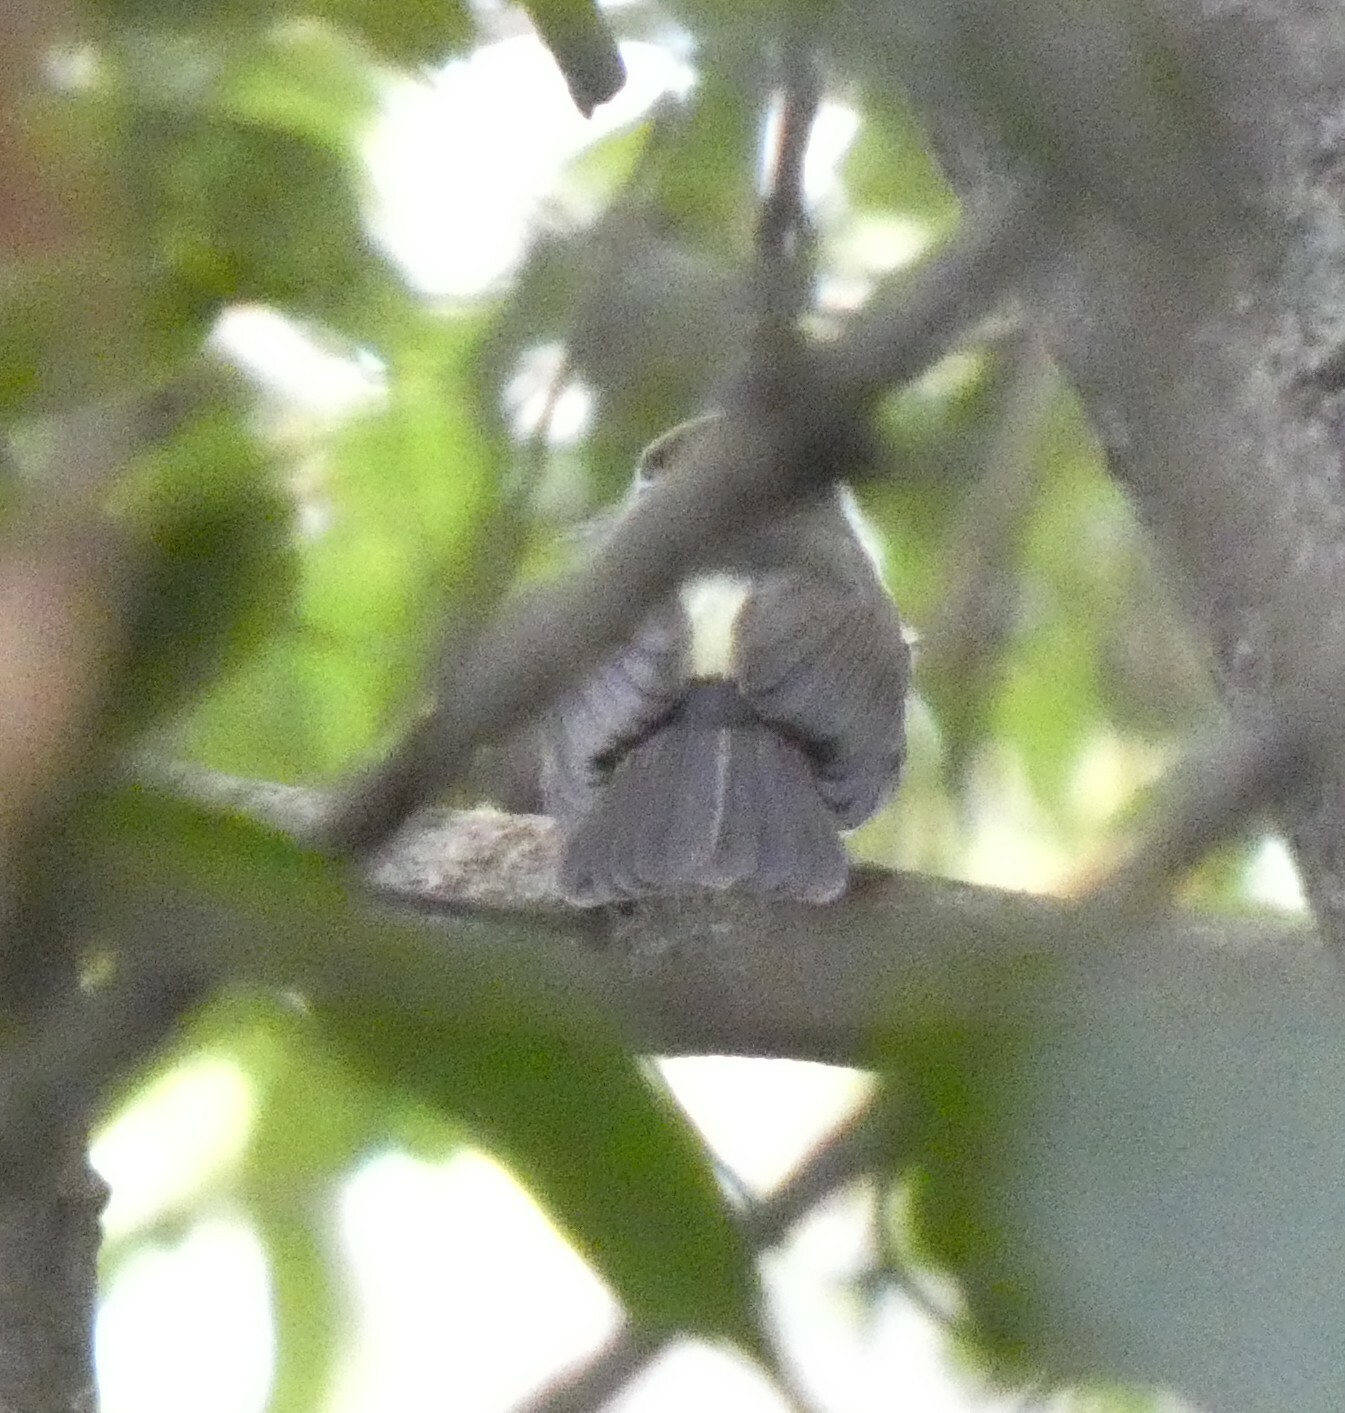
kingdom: Animalia
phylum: Chordata
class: Aves
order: Passeriformes
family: Tyrannidae
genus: Myiobius
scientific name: Myiobius barbatus
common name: Whiskered myiobius
